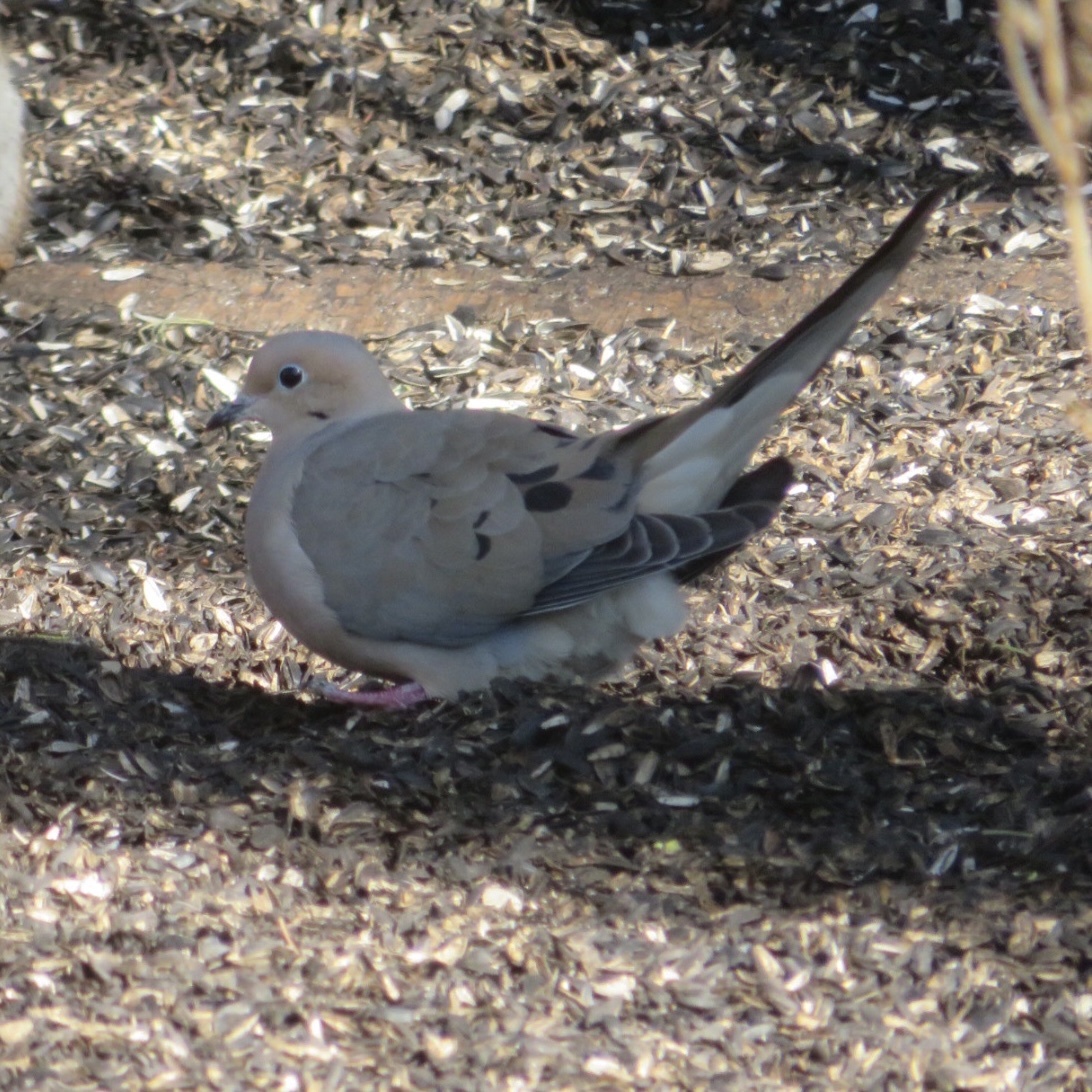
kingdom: Animalia
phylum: Chordata
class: Aves
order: Columbiformes
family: Columbidae
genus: Zenaida
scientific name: Zenaida macroura
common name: Mourning dove
